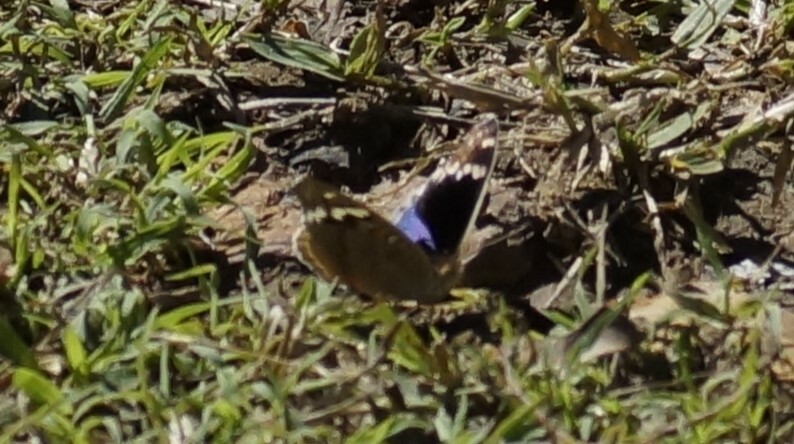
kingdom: Animalia
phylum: Arthropoda
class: Insecta
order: Lepidoptera
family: Nymphalidae
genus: Junonia
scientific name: Junonia orithya
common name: Blue pansy
